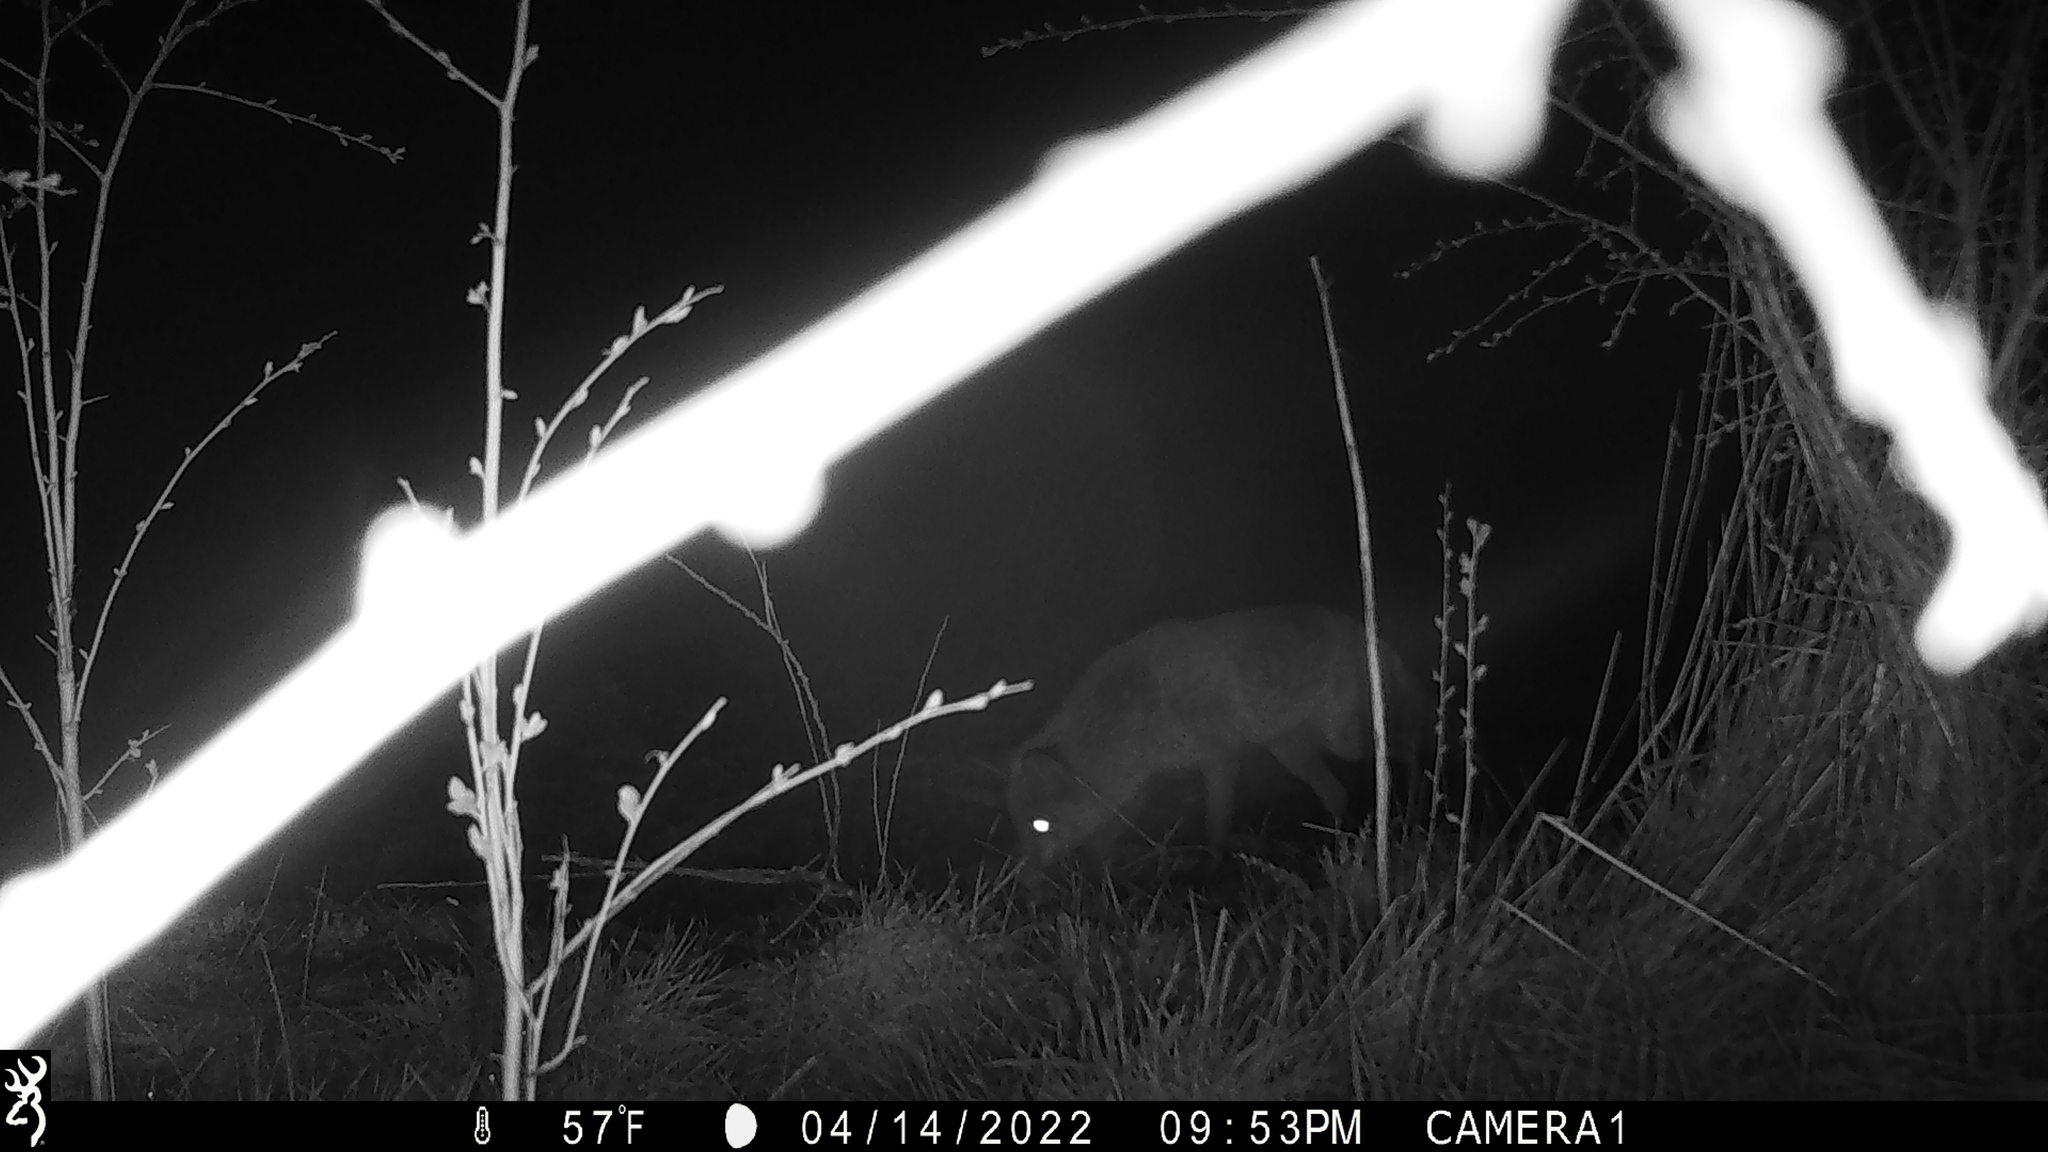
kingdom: Animalia
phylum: Chordata
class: Mammalia
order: Carnivora
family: Canidae
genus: Vulpes
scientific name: Vulpes vulpes
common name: Red fox
